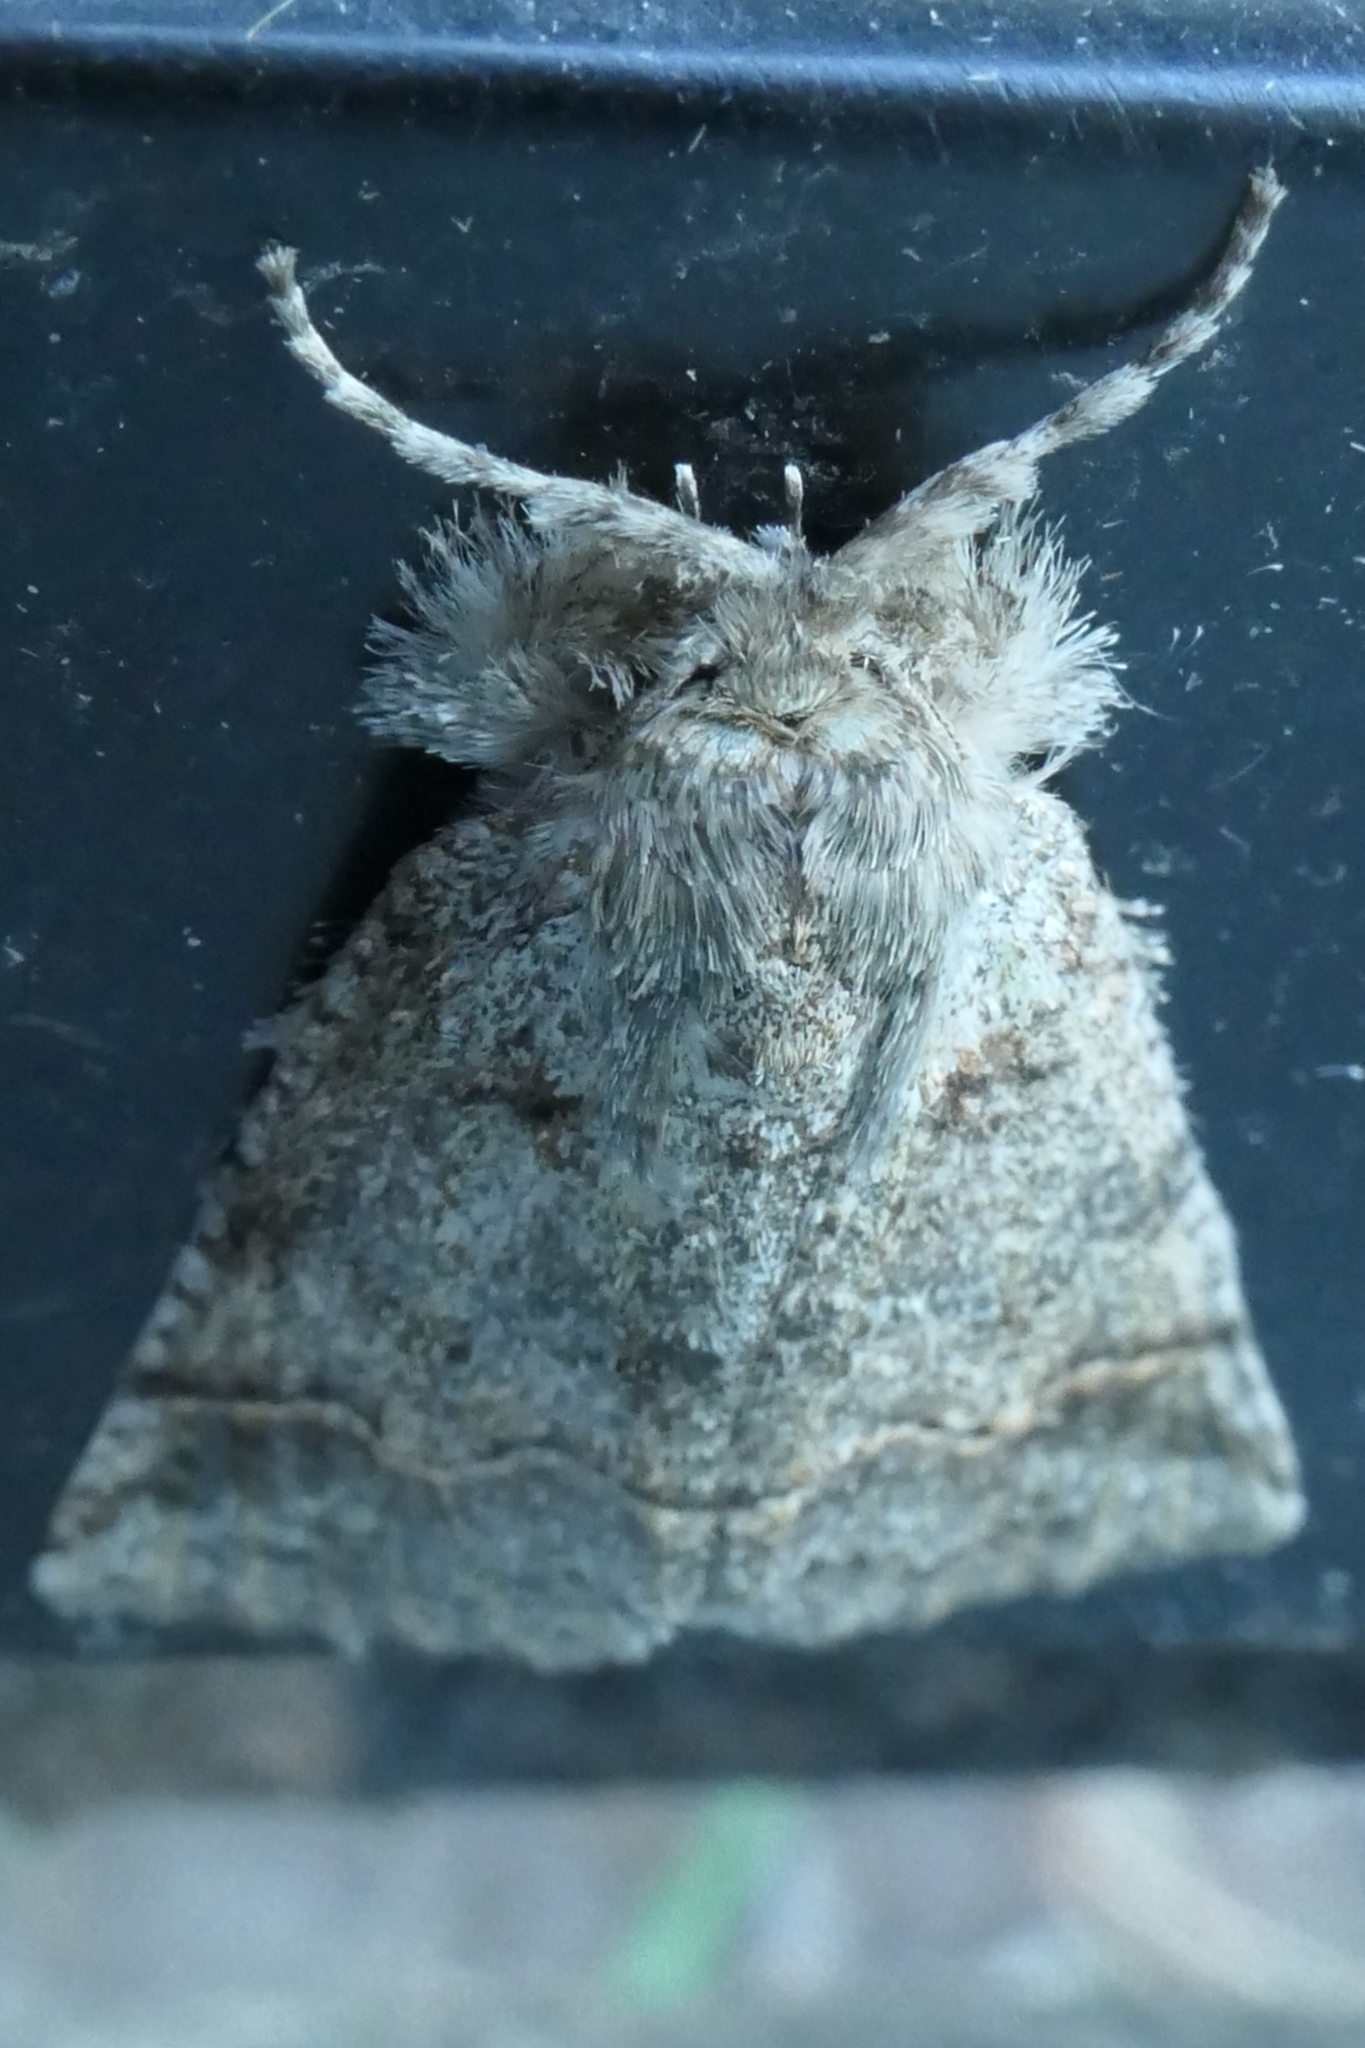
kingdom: Animalia
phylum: Arthropoda
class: Insecta
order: Lepidoptera
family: Geometridae
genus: Declana
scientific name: Declana floccosa
